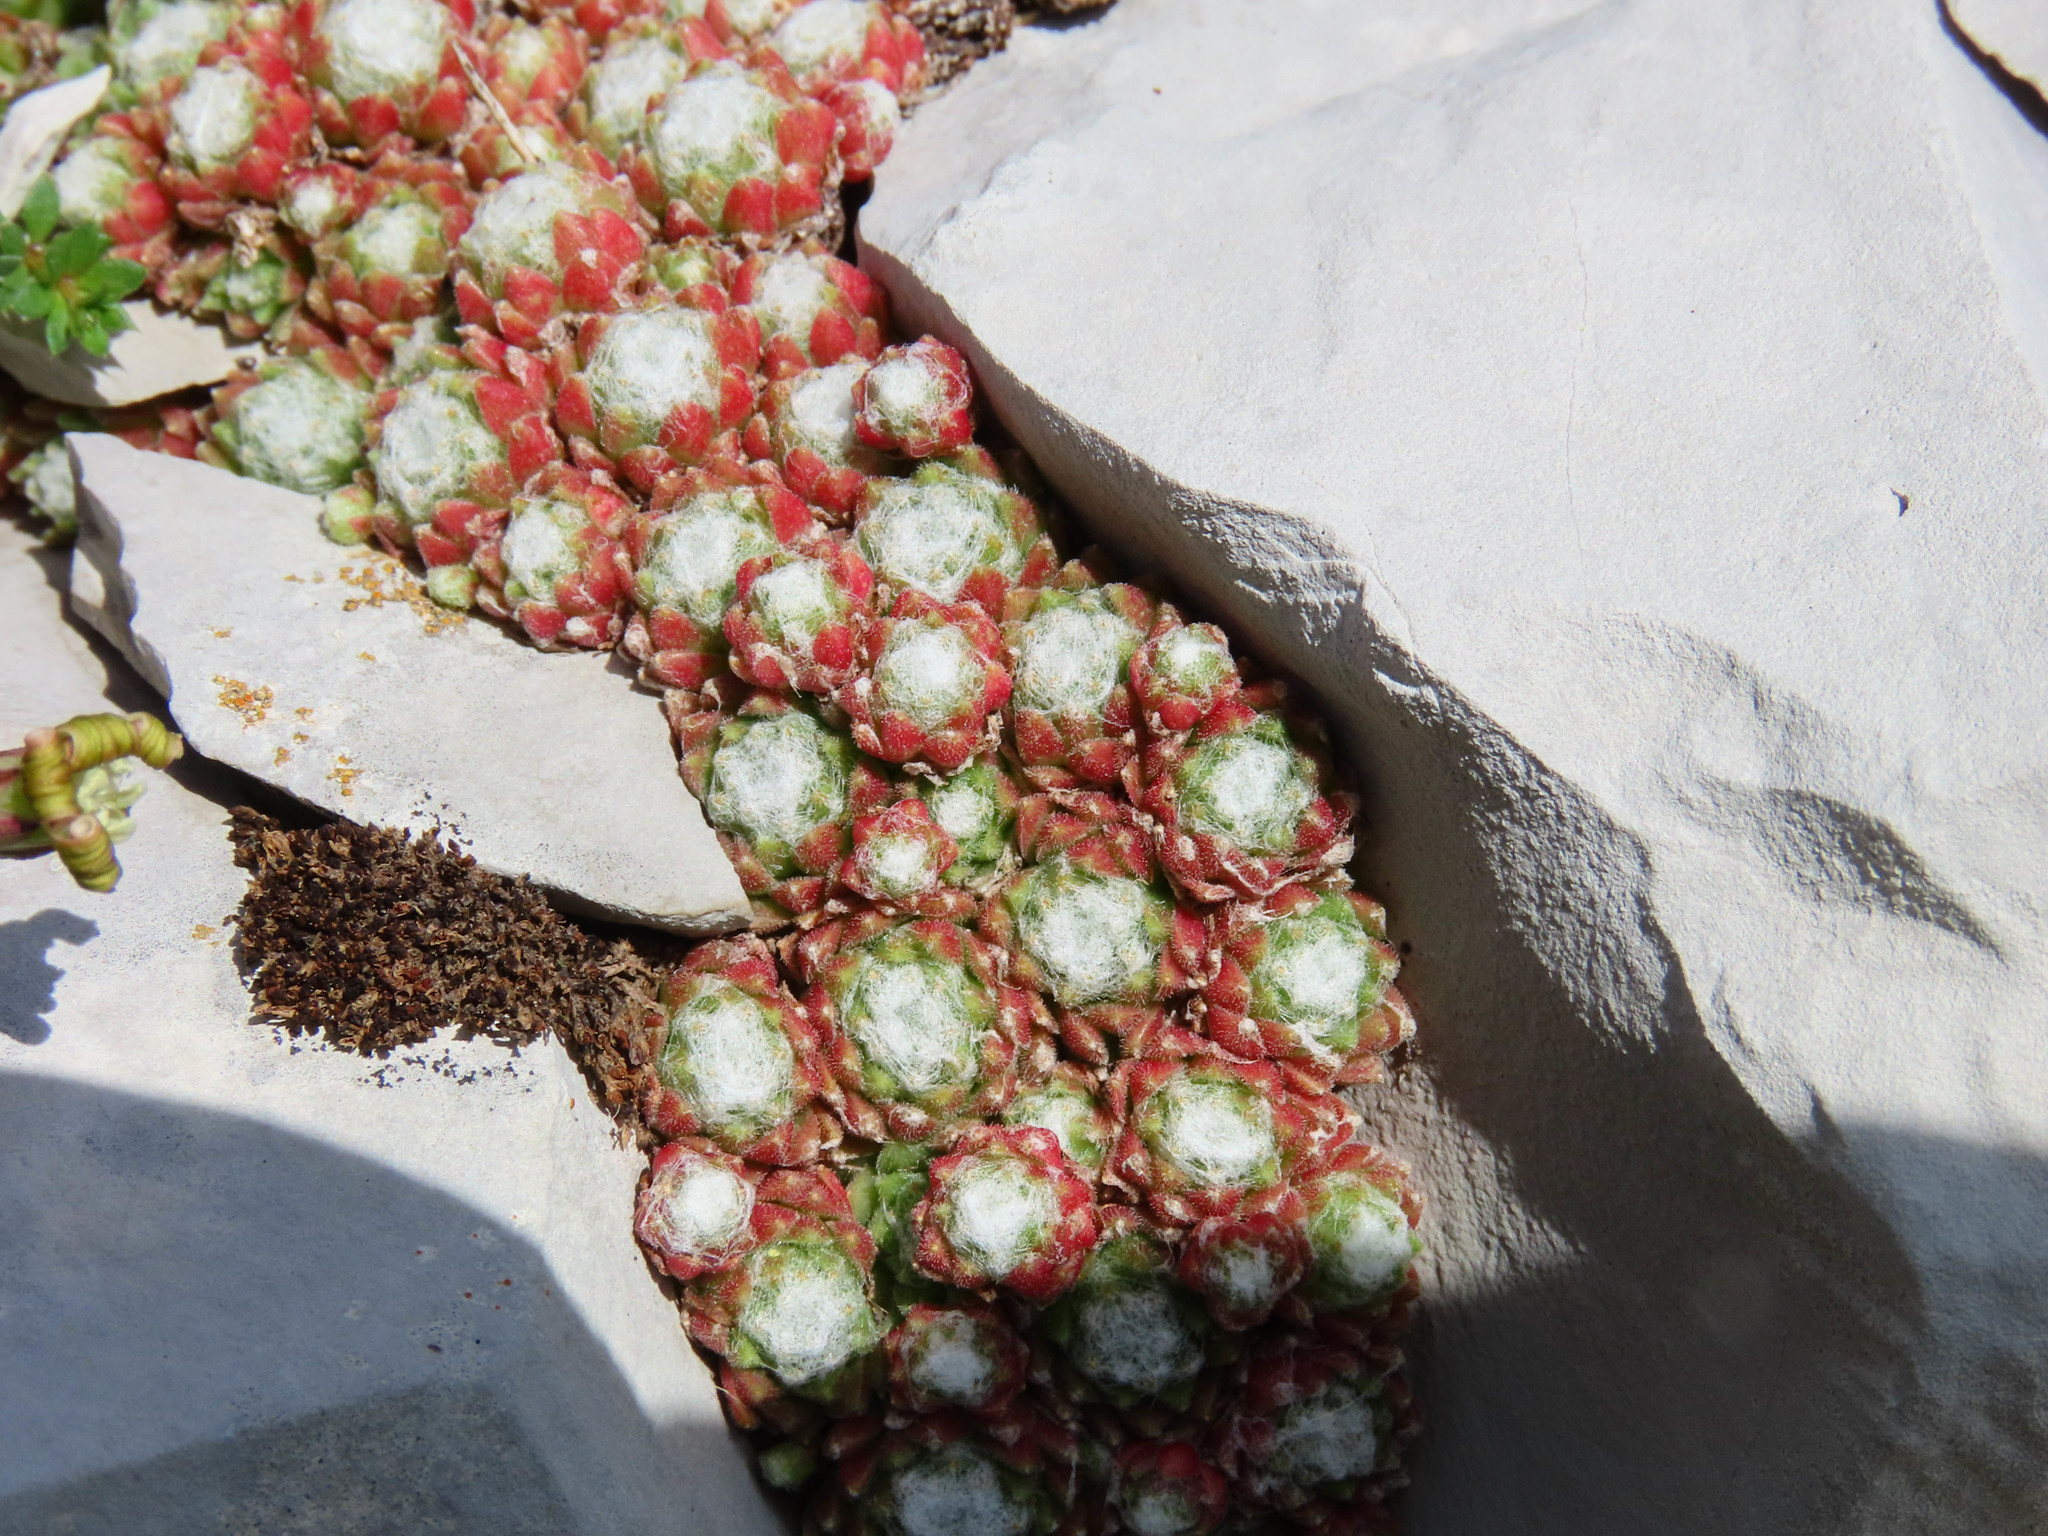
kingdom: Plantae
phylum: Tracheophyta
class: Magnoliopsida
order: Saxifragales
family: Crassulaceae
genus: Sempervivum
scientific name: Sempervivum arachnoideum
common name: Cobweb house-leek
